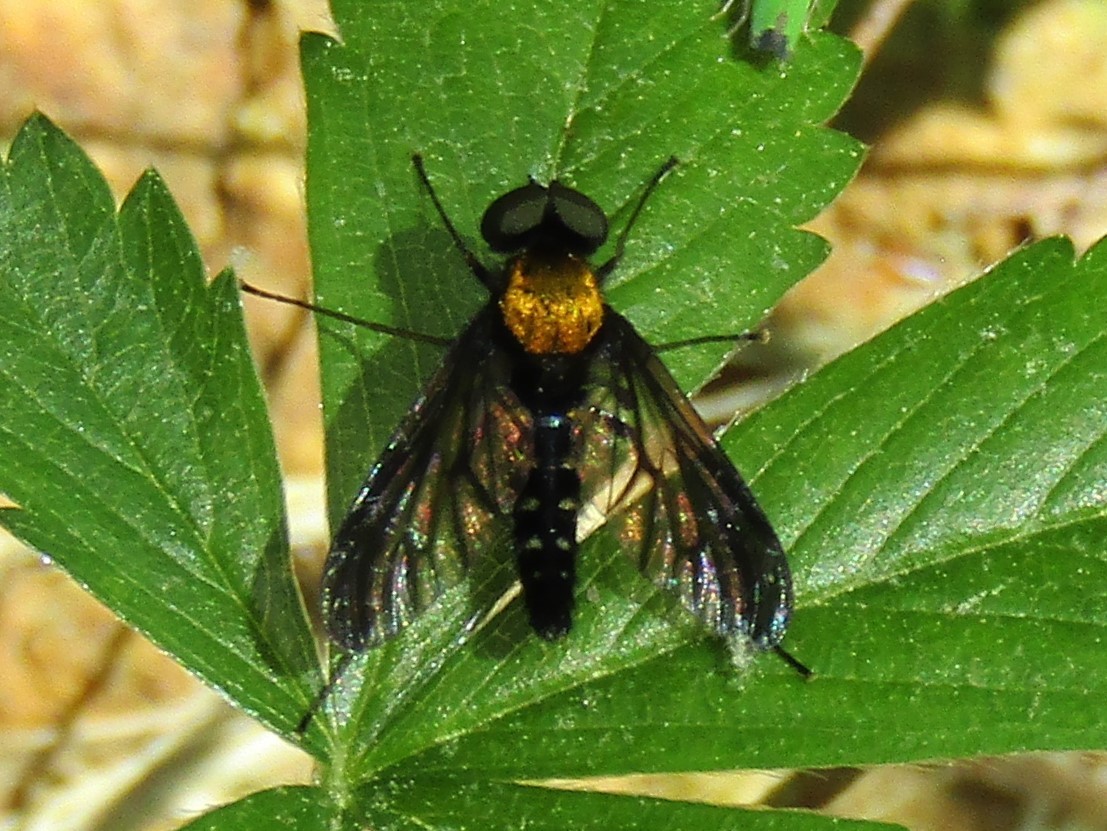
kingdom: Animalia
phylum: Arthropoda
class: Insecta
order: Diptera
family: Rhagionidae
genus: Chrysopilus
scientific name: Chrysopilus thoracicus
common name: Golden-backed snipe fly
